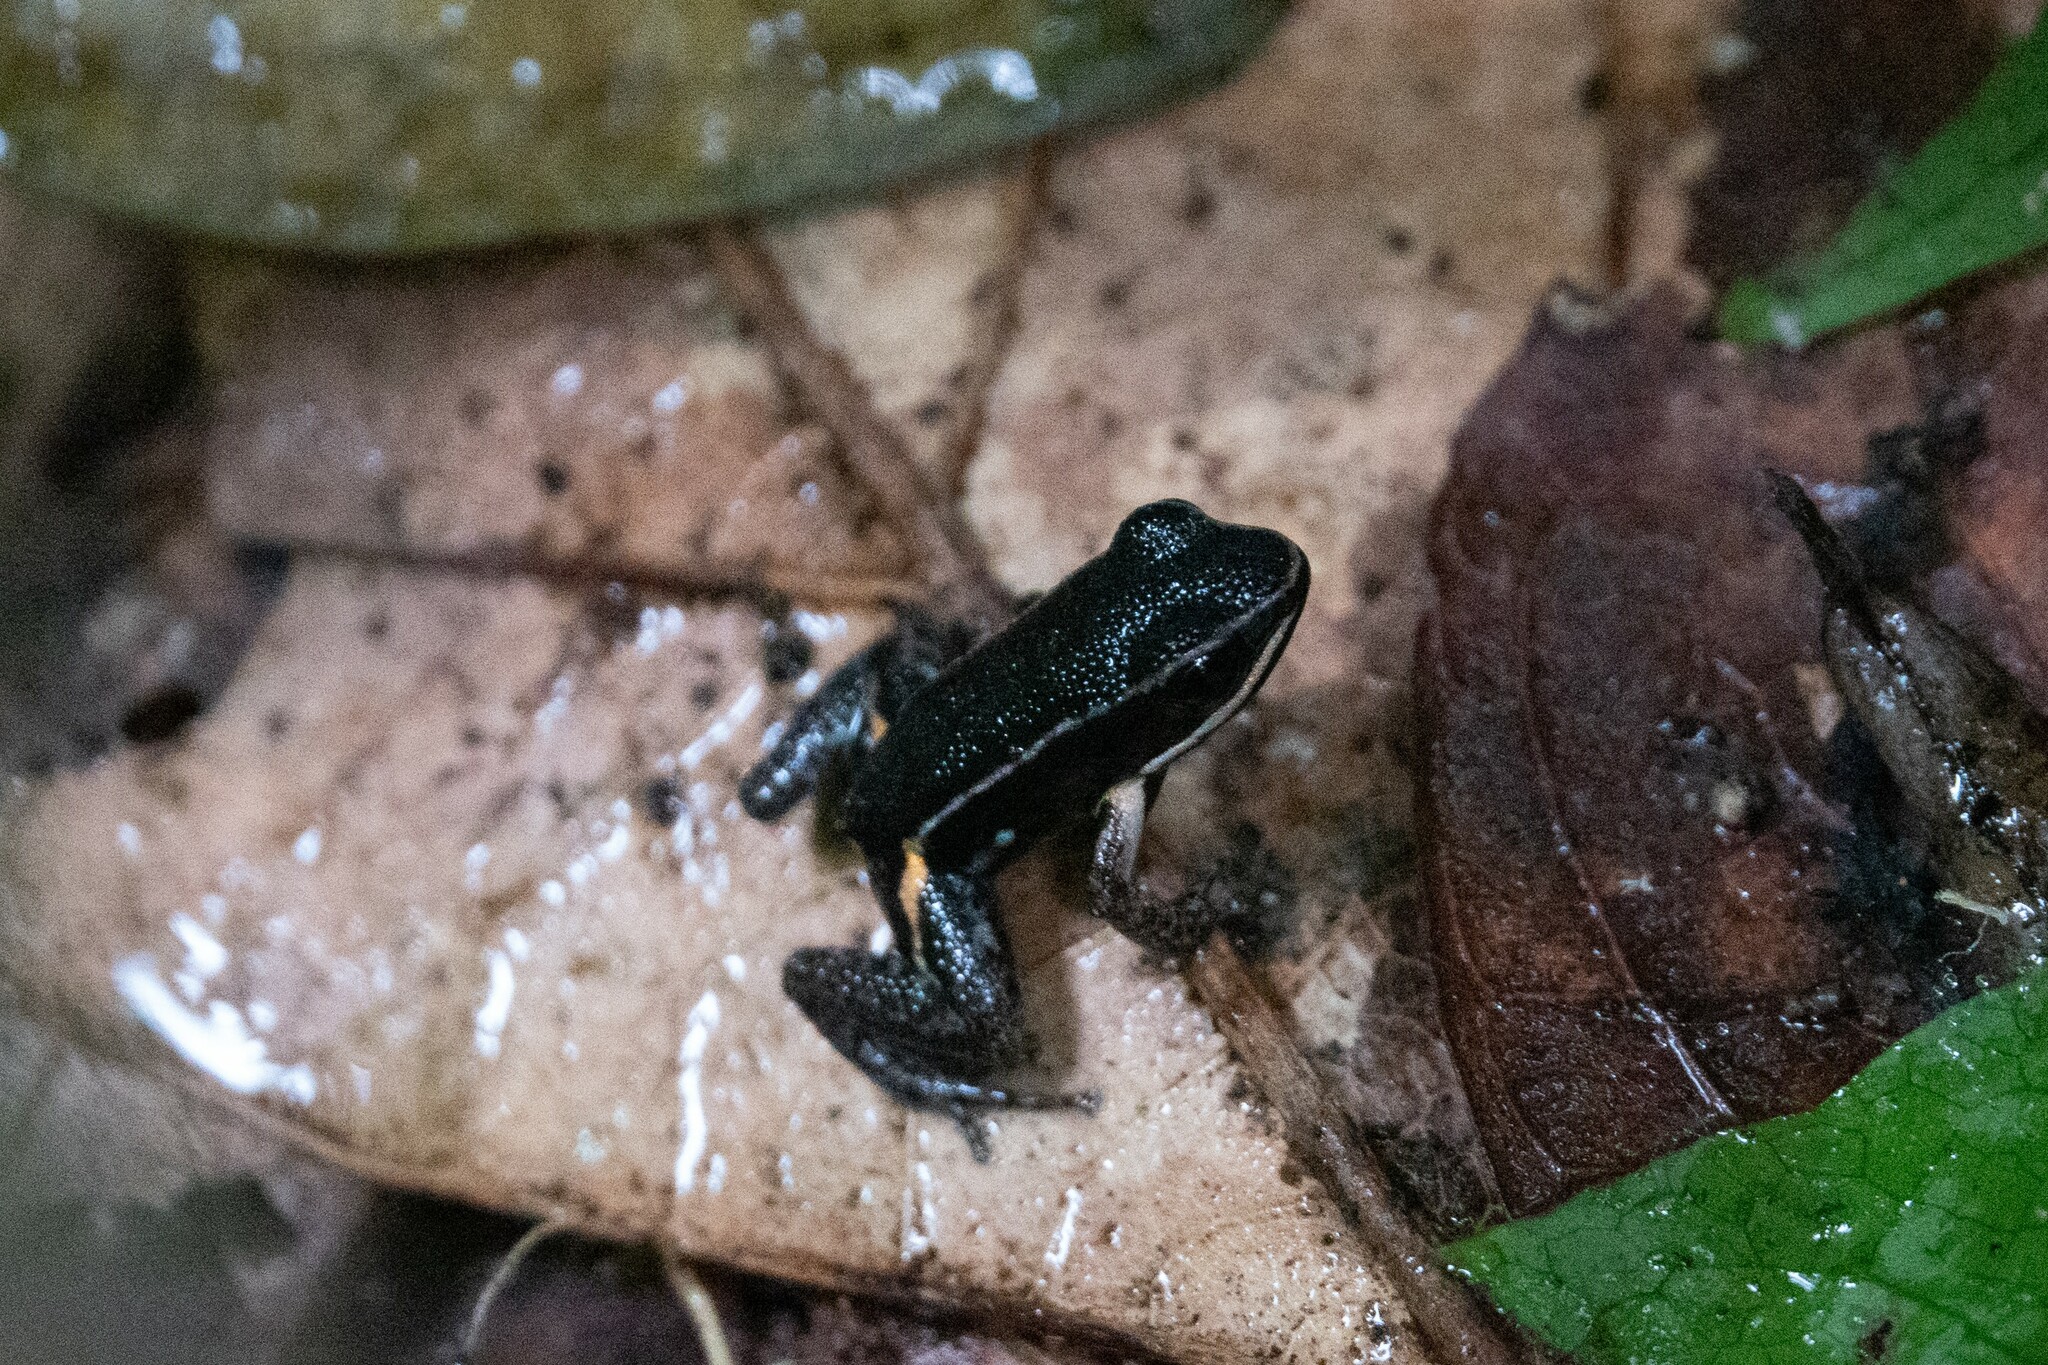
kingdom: Animalia
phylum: Chordata
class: Amphibia
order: Anura
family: Aromobatidae
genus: Allobates
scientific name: Allobates femoralis
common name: Brilliant-thighed poison frog
